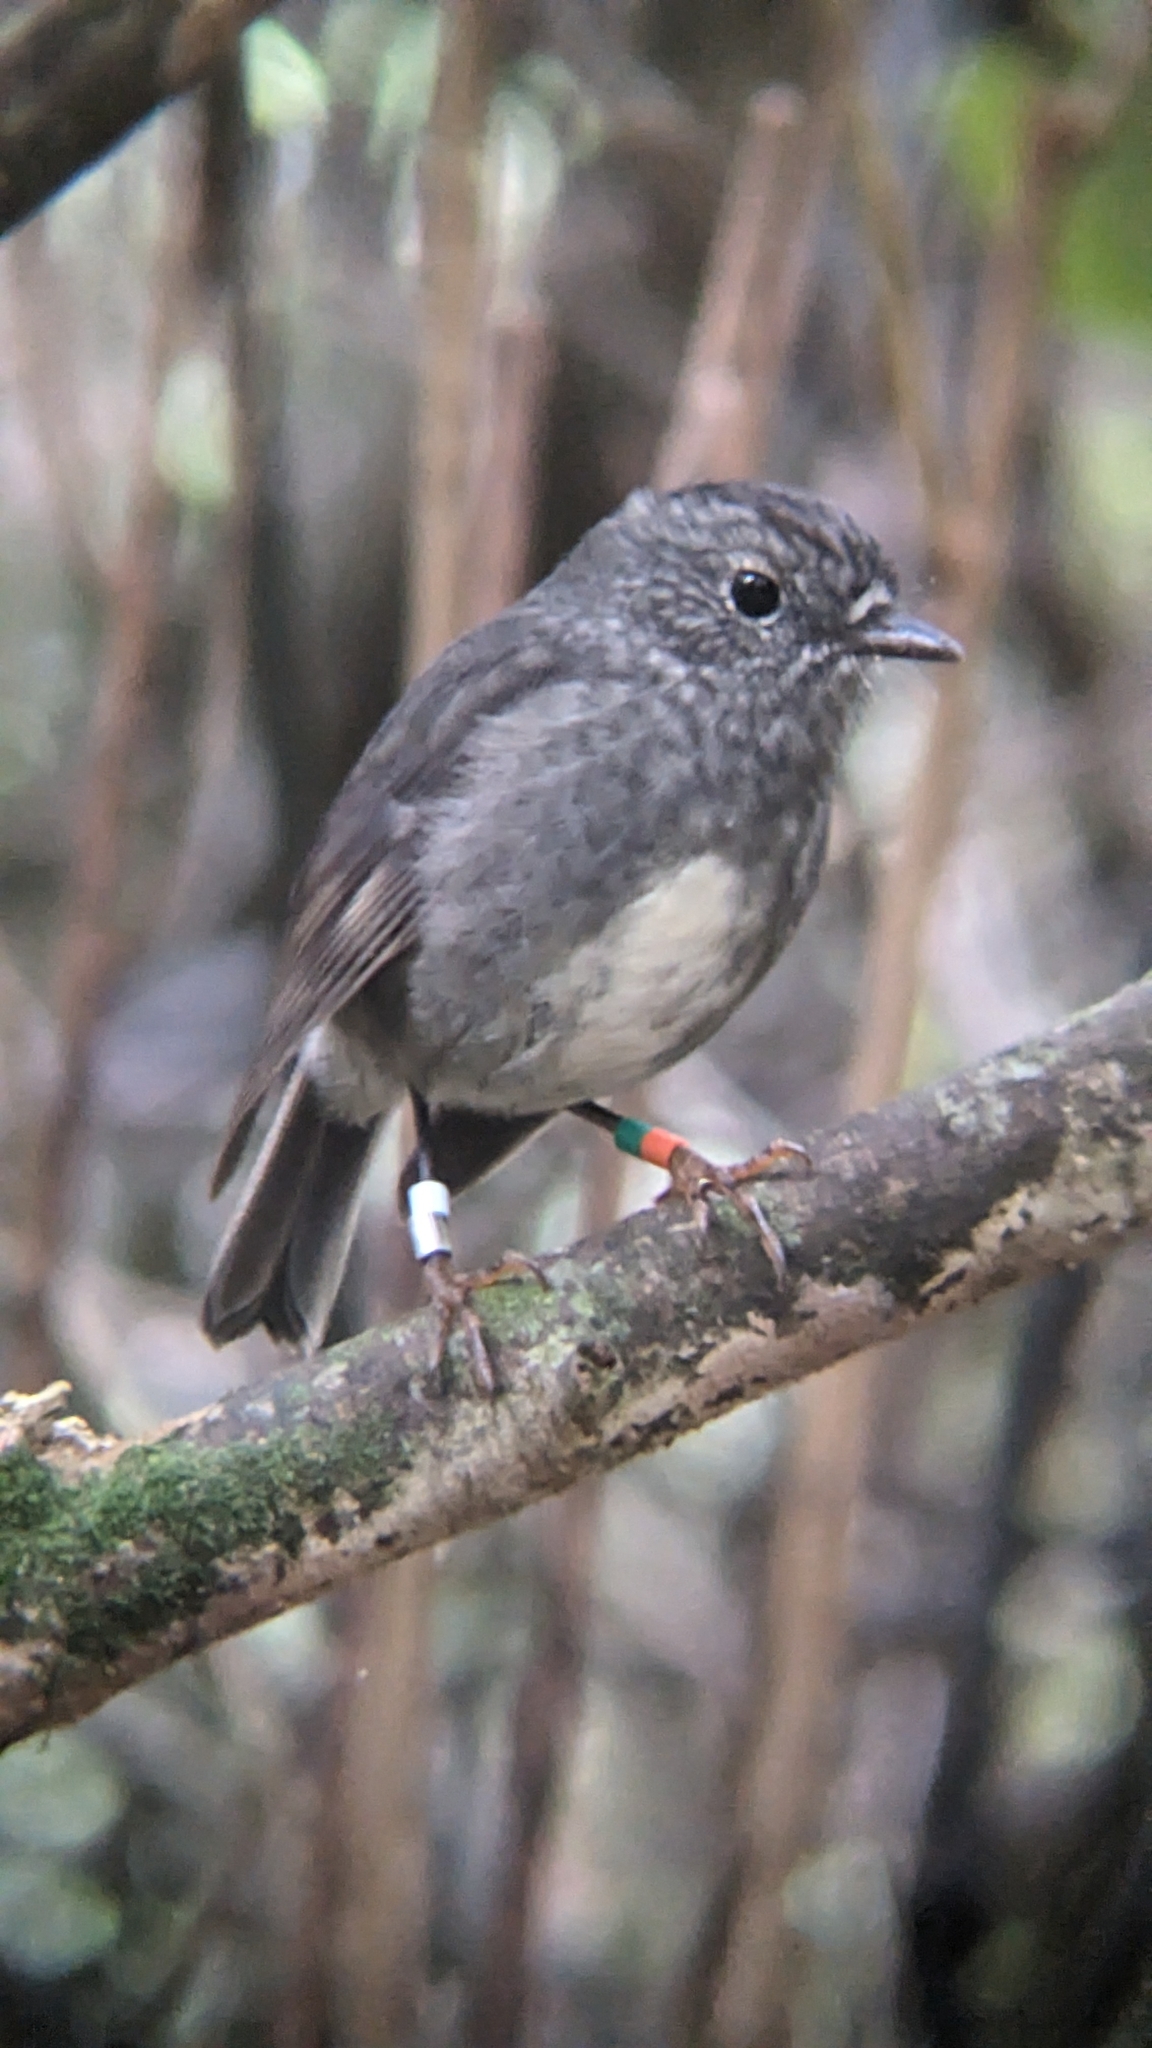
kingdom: Animalia
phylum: Chordata
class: Aves
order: Passeriformes
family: Petroicidae
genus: Petroica
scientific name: Petroica australis
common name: New zealand robin
